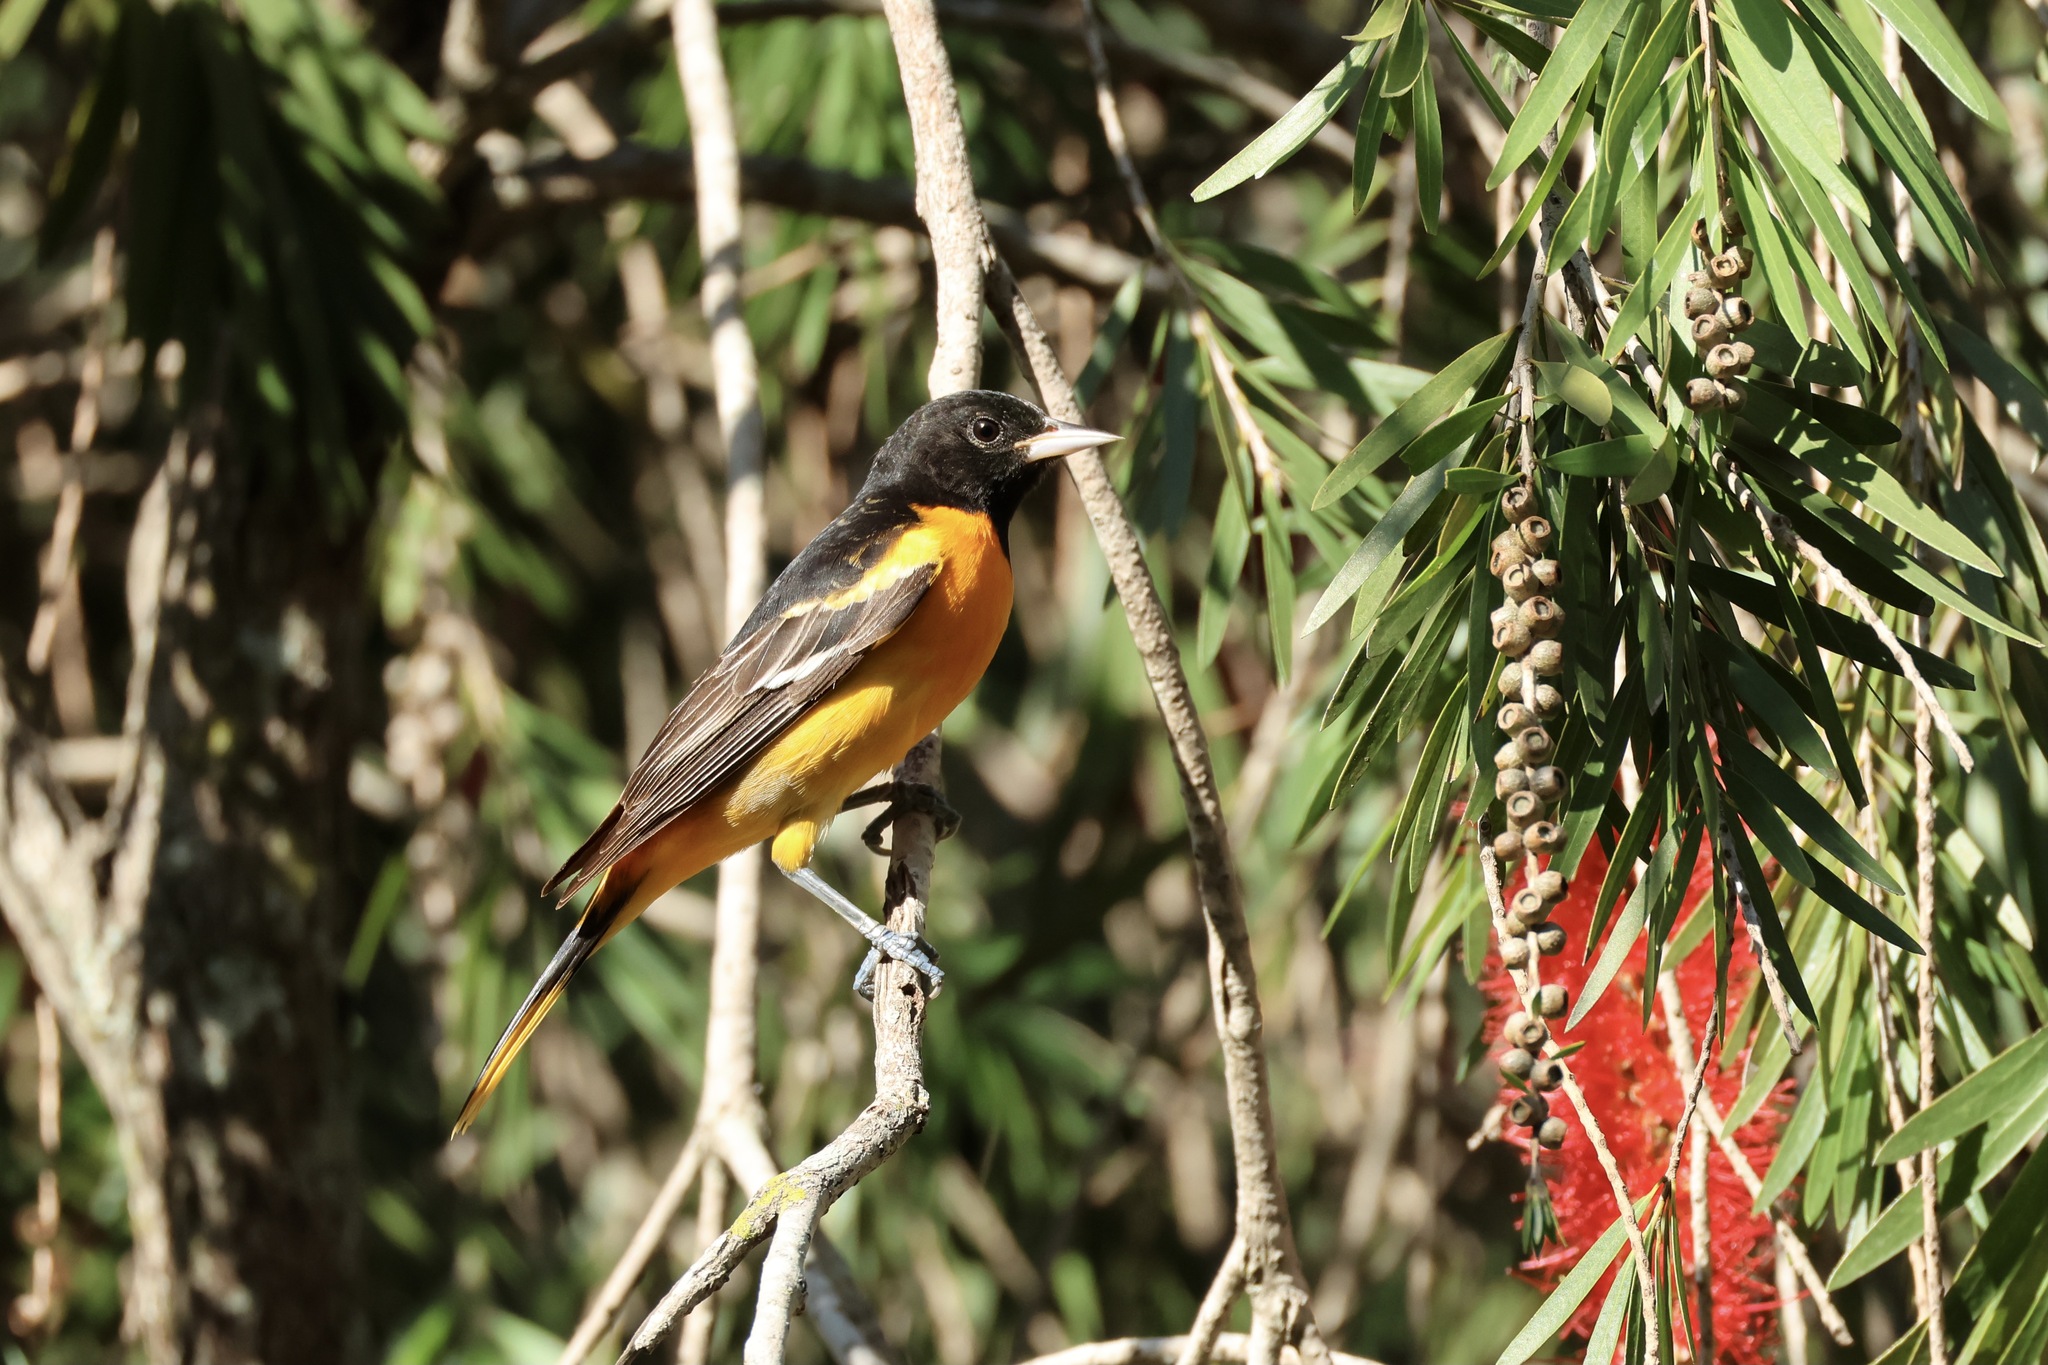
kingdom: Animalia
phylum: Chordata
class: Aves
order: Passeriformes
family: Icteridae
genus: Icterus
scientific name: Icterus galbula
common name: Baltimore oriole
